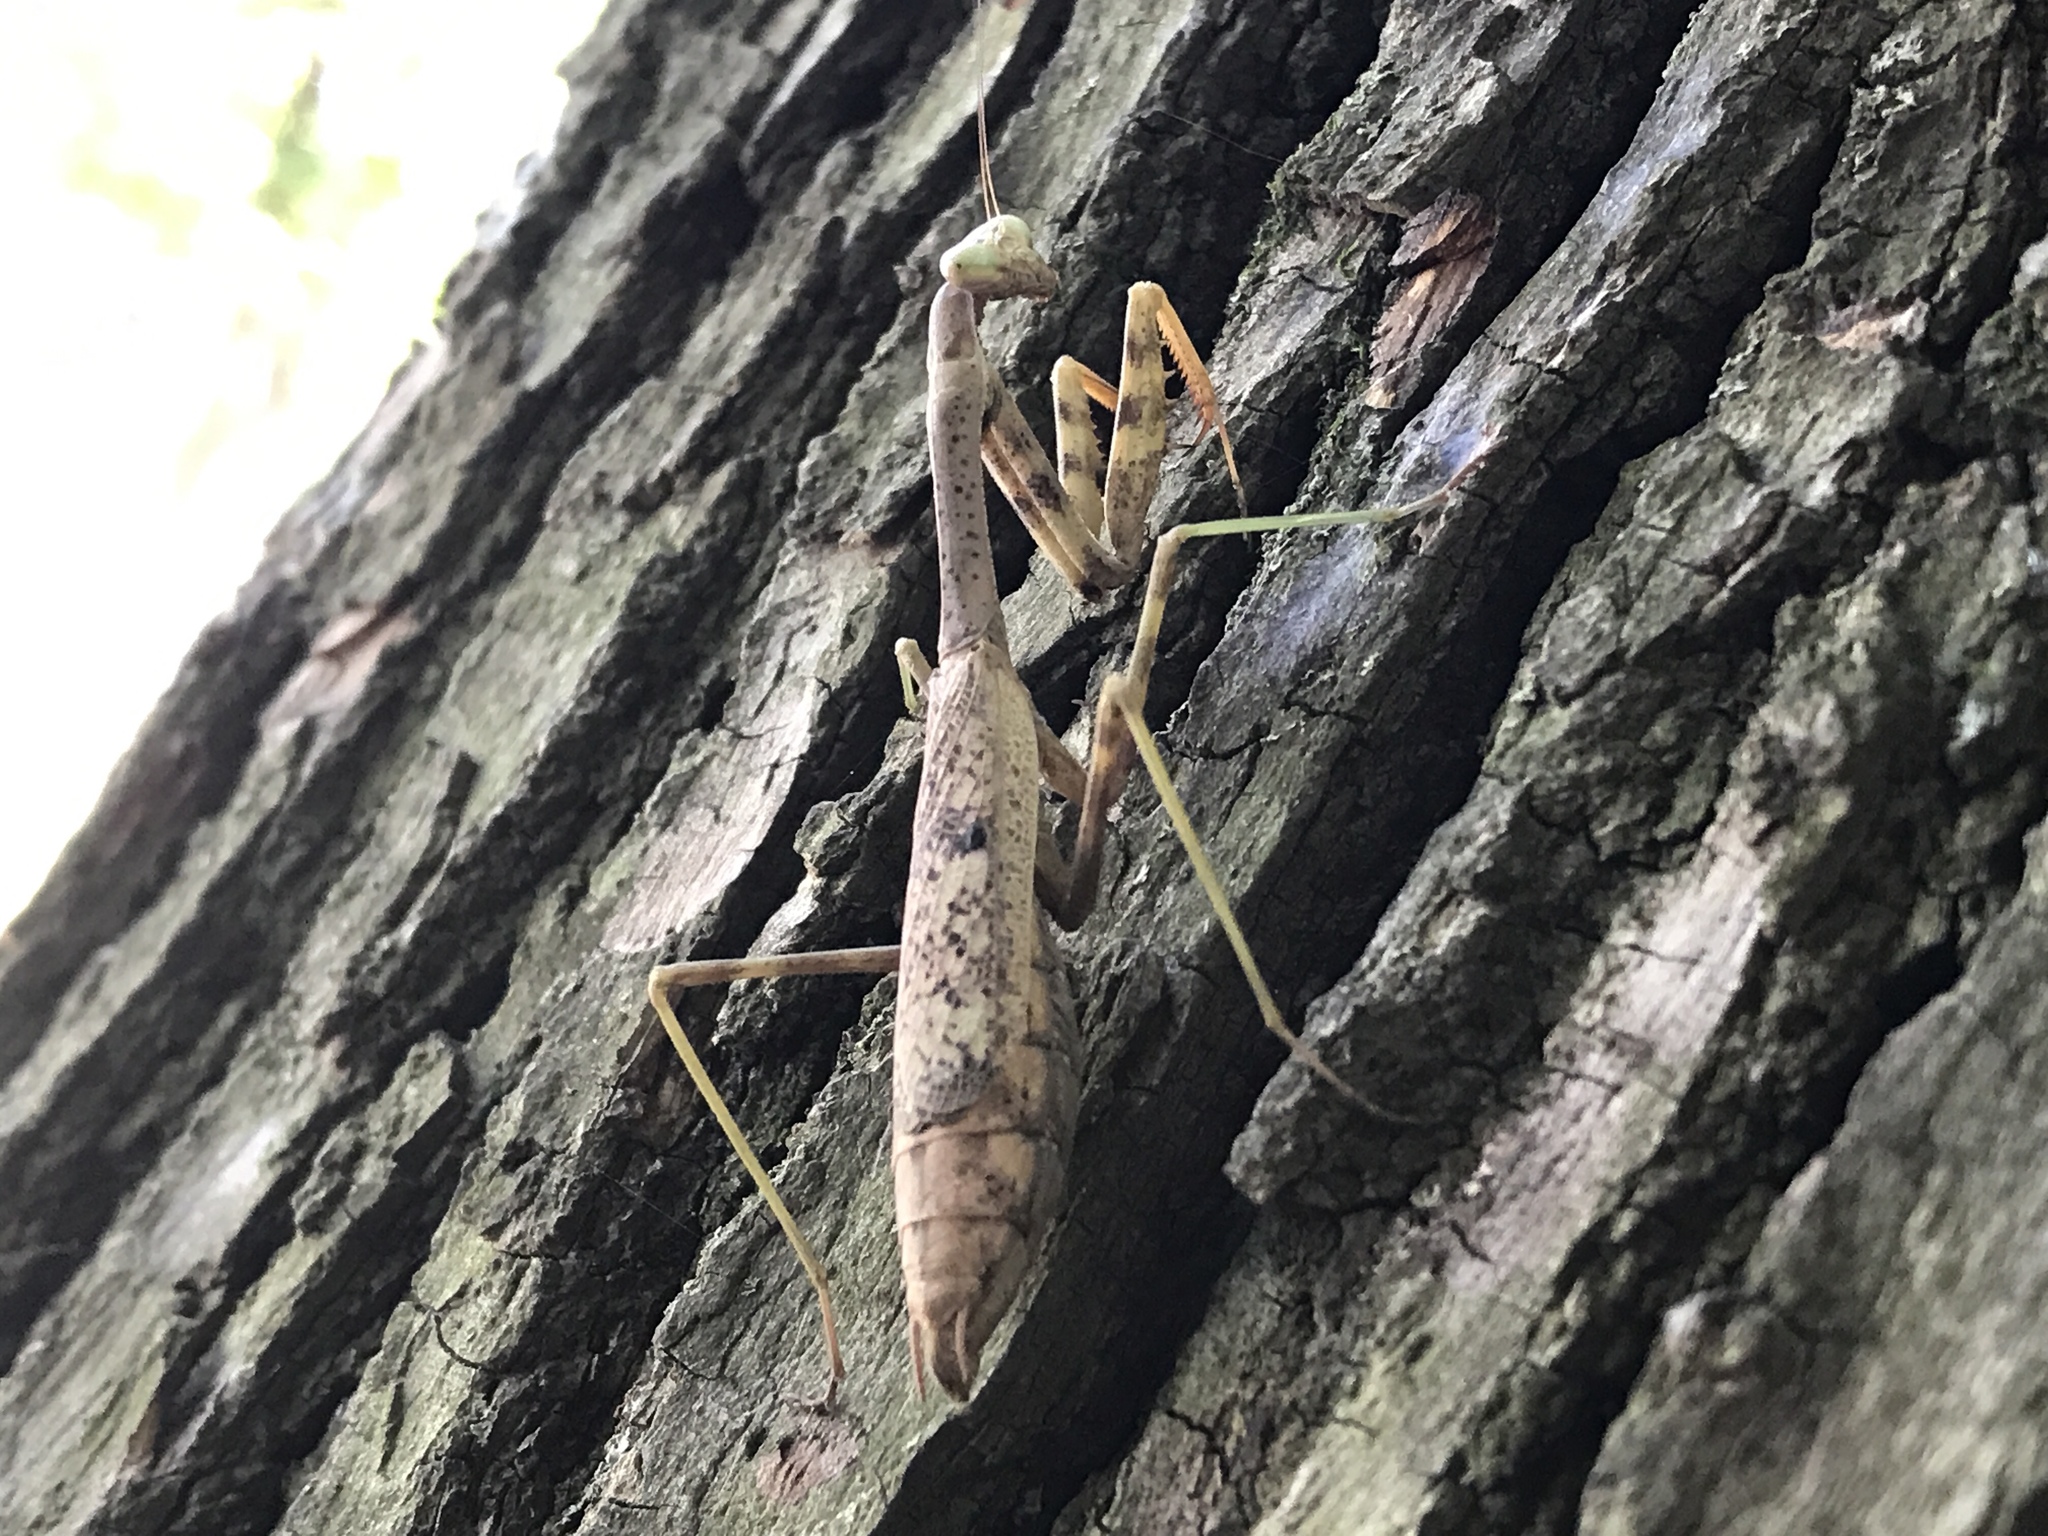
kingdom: Animalia
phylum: Arthropoda
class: Insecta
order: Mantodea
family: Mantidae
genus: Stagmomantis
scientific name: Stagmomantis carolina
